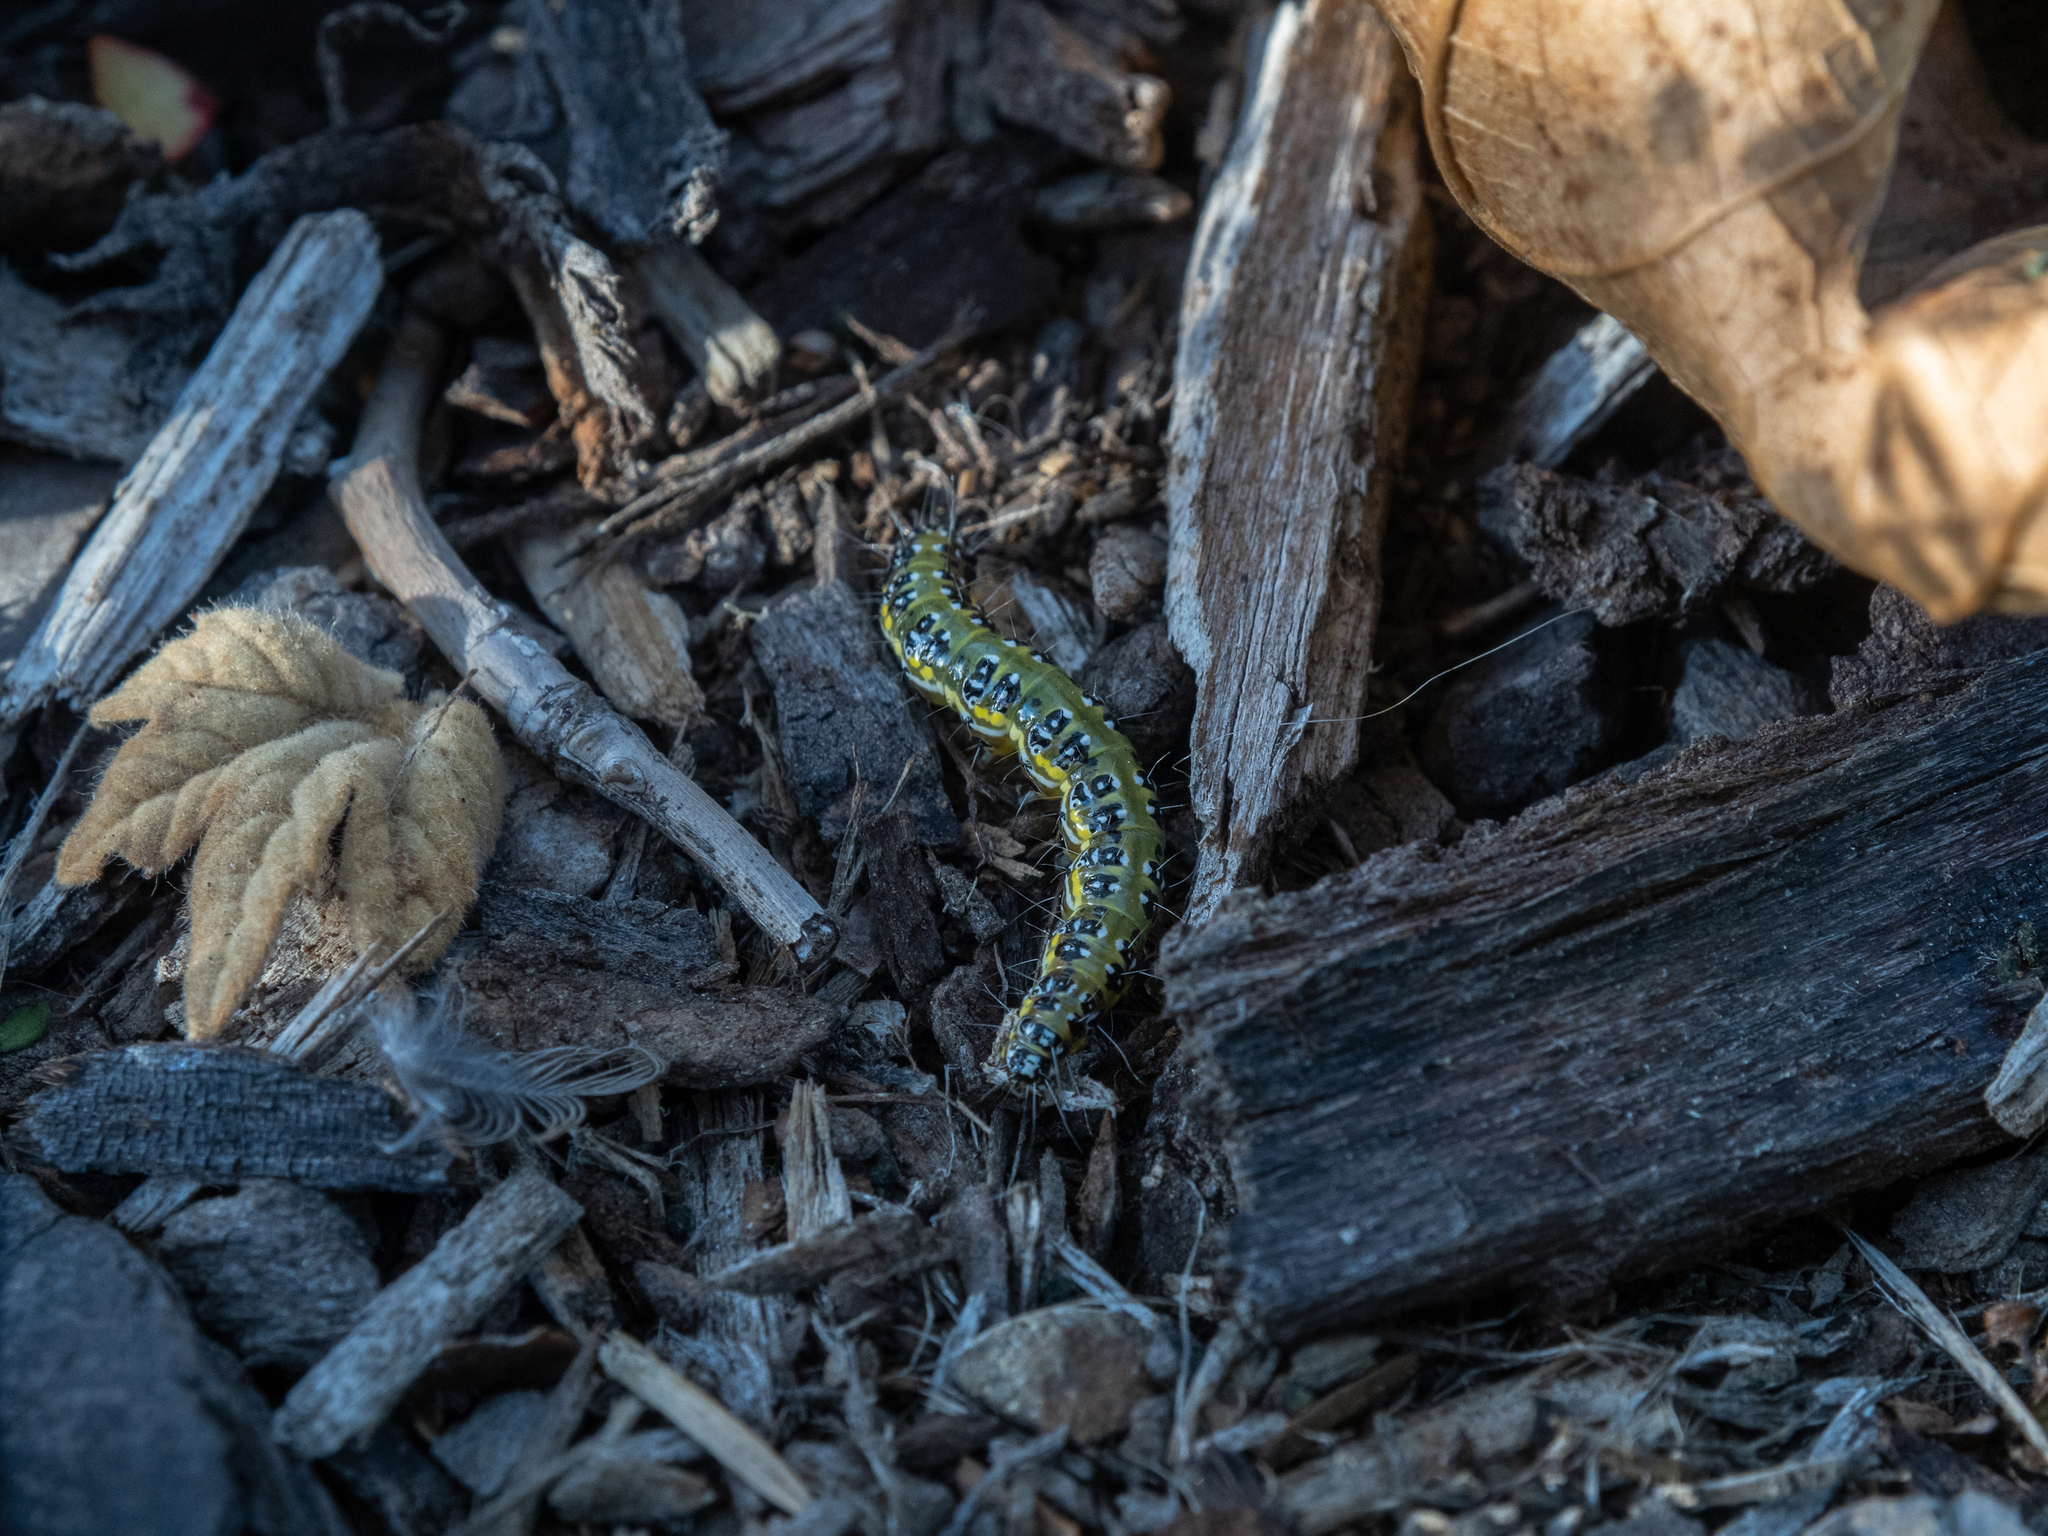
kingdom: Animalia
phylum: Arthropoda
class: Insecta
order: Lepidoptera
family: Crambidae
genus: Uresiphita
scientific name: Uresiphita
